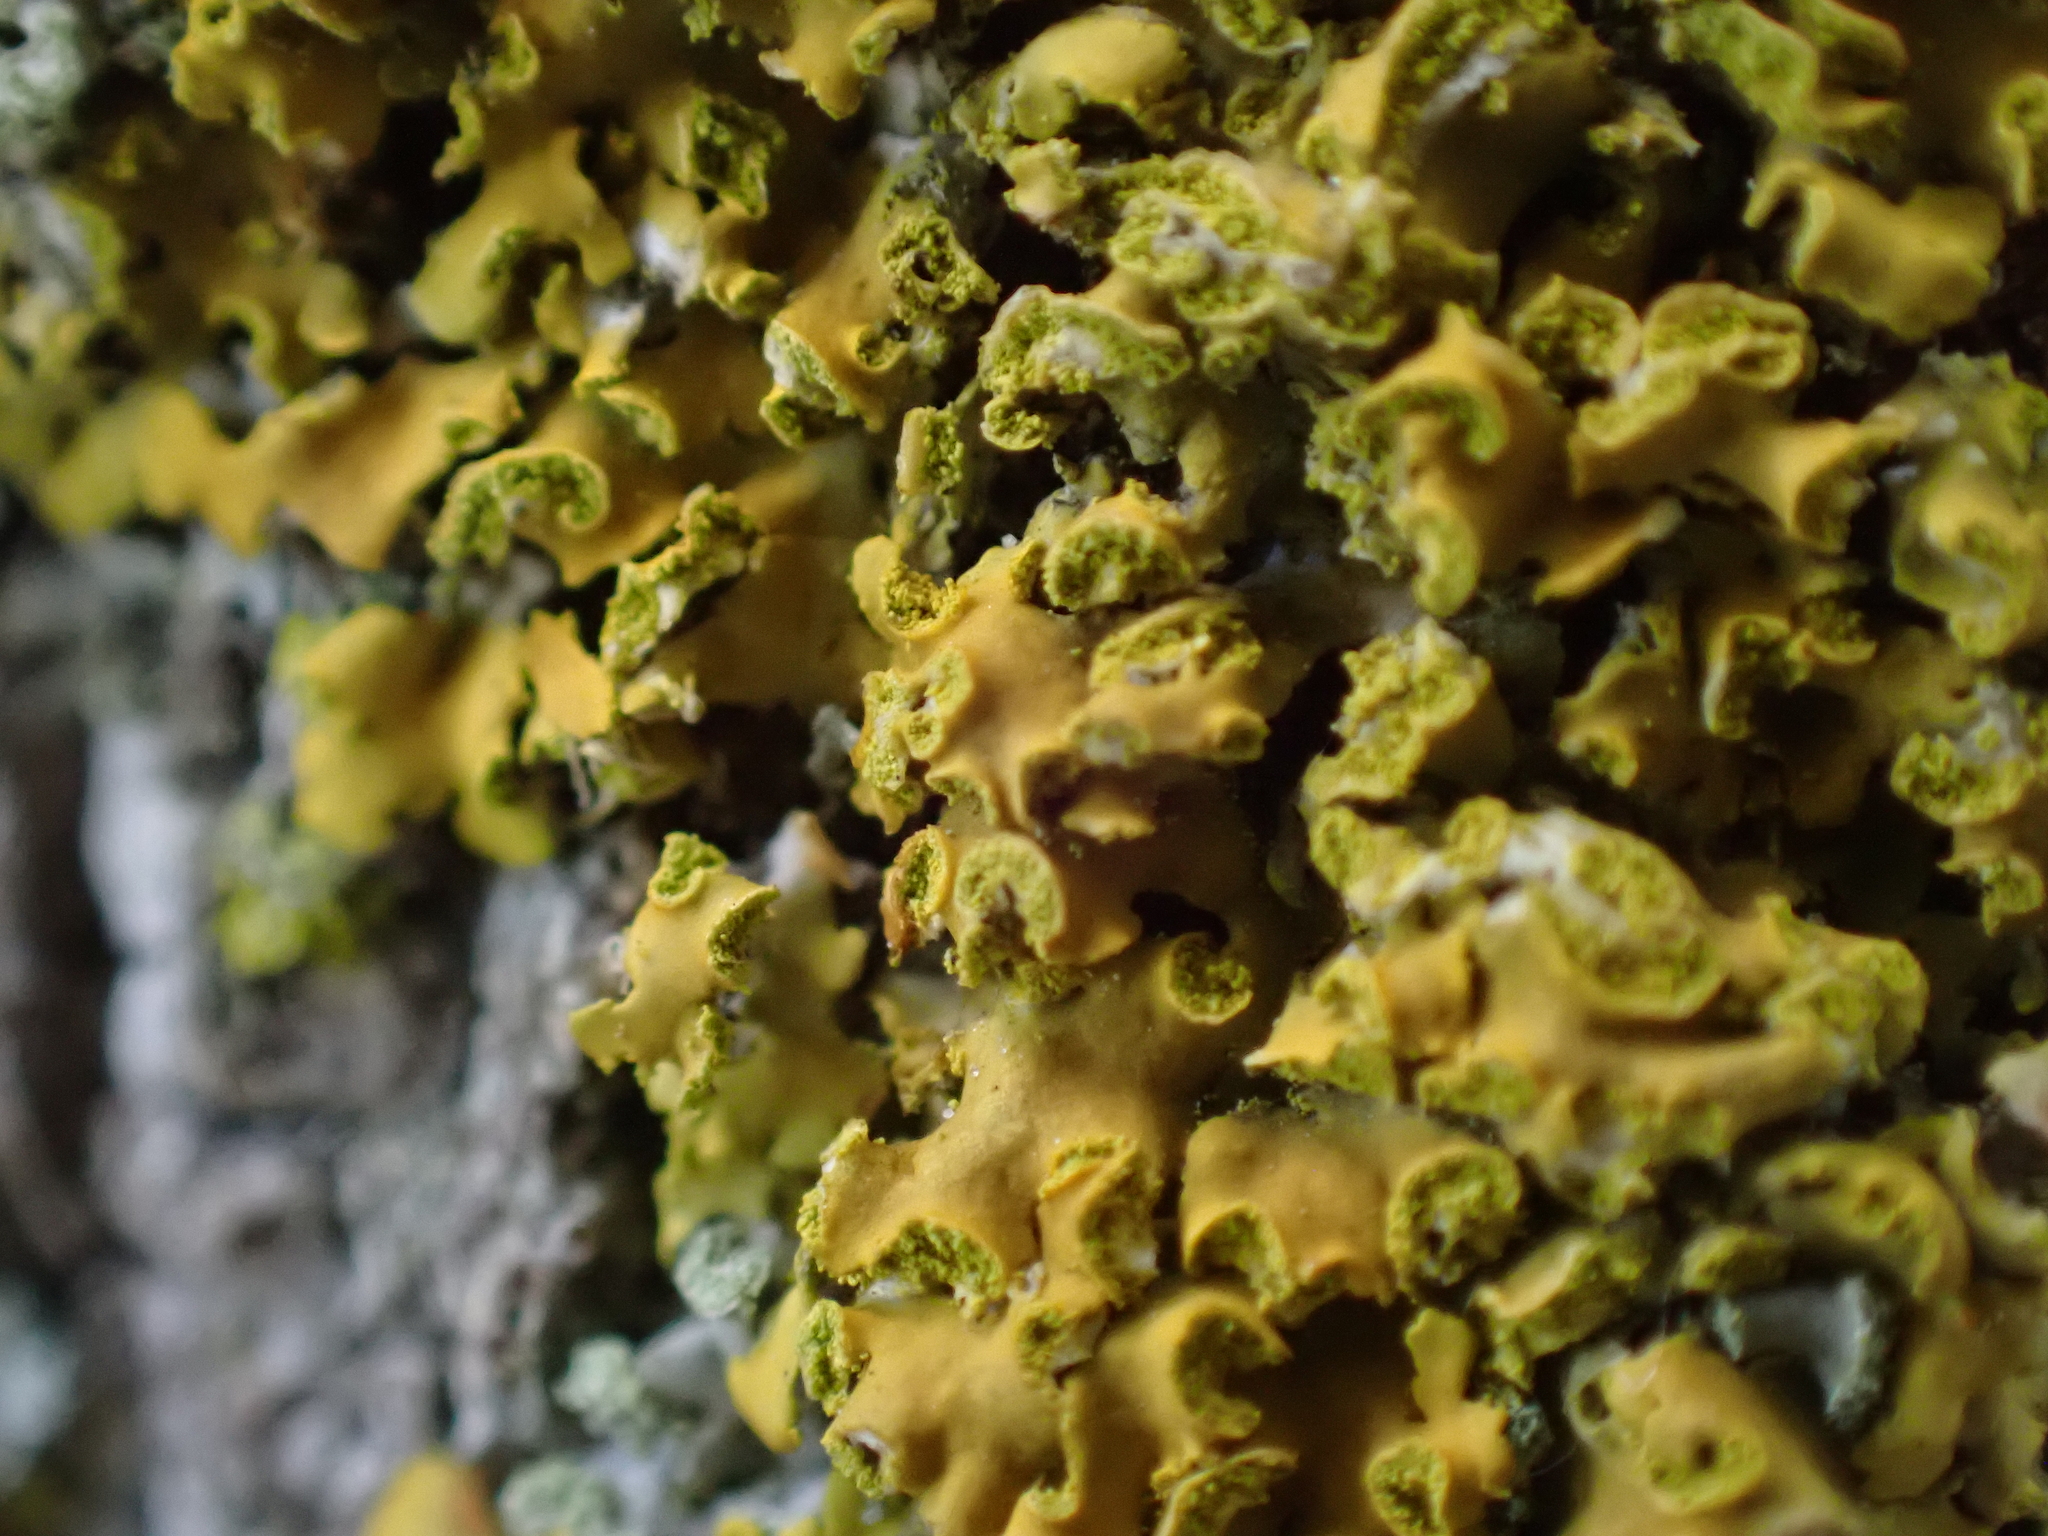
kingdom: Fungi
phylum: Ascomycota
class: Lecanoromycetes
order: Teloschistales
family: Teloschistaceae
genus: Oxneria
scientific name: Oxneria fallax
